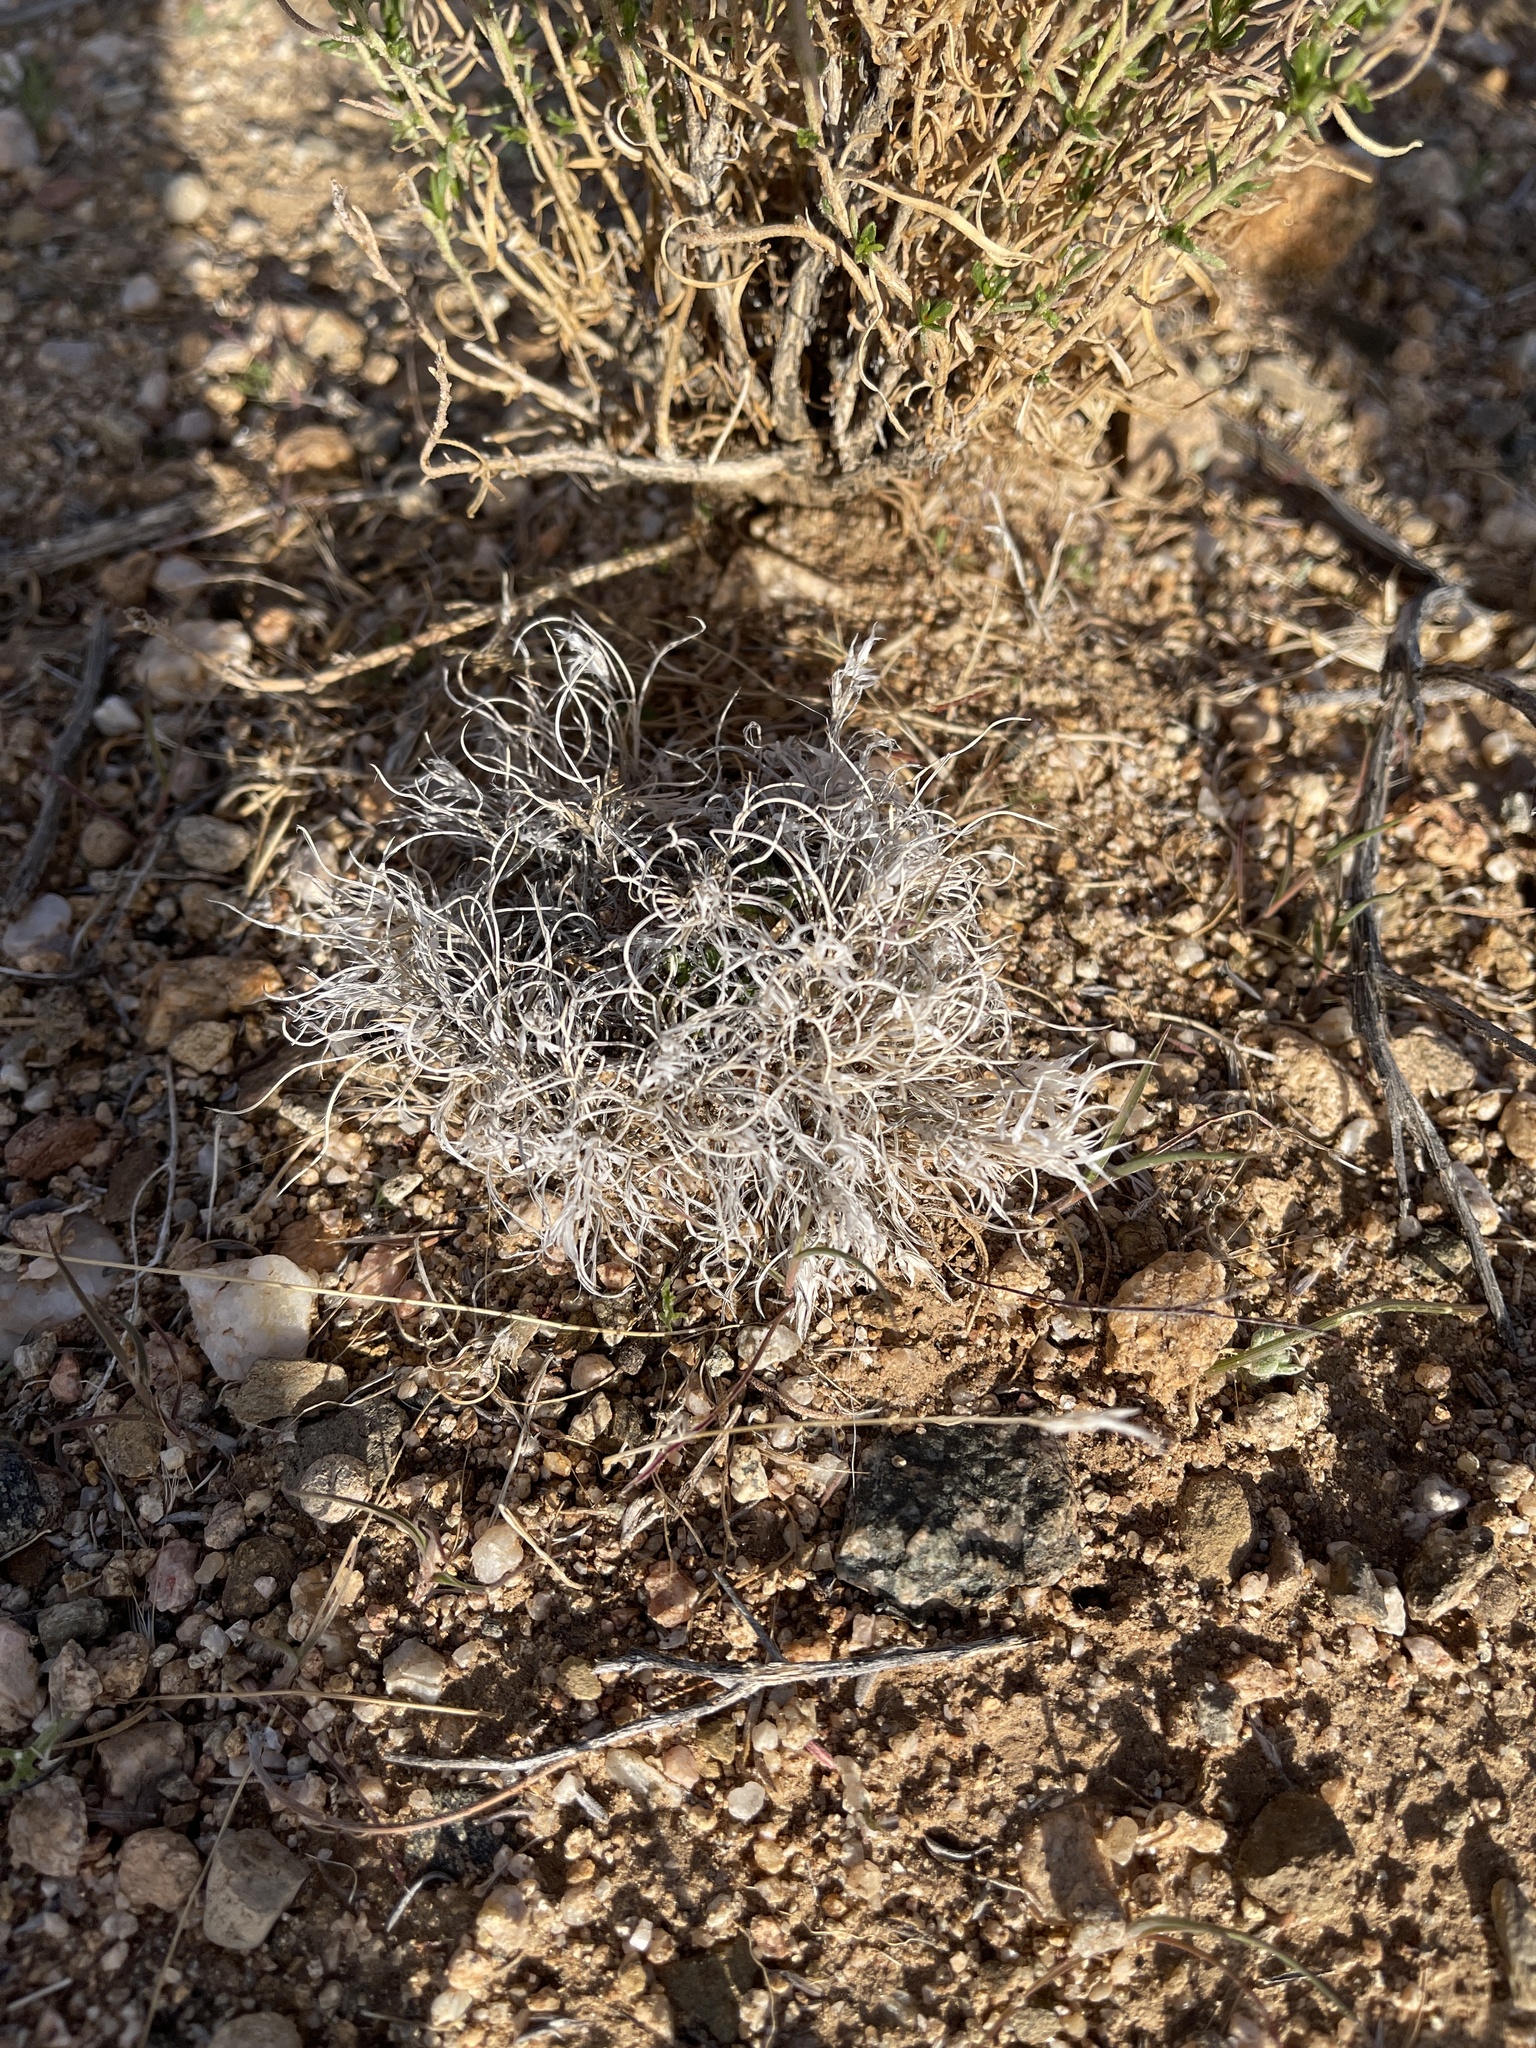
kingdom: Plantae
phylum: Tracheophyta
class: Liliopsida
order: Poales
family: Poaceae
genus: Dasyochloa
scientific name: Dasyochloa pulchella
